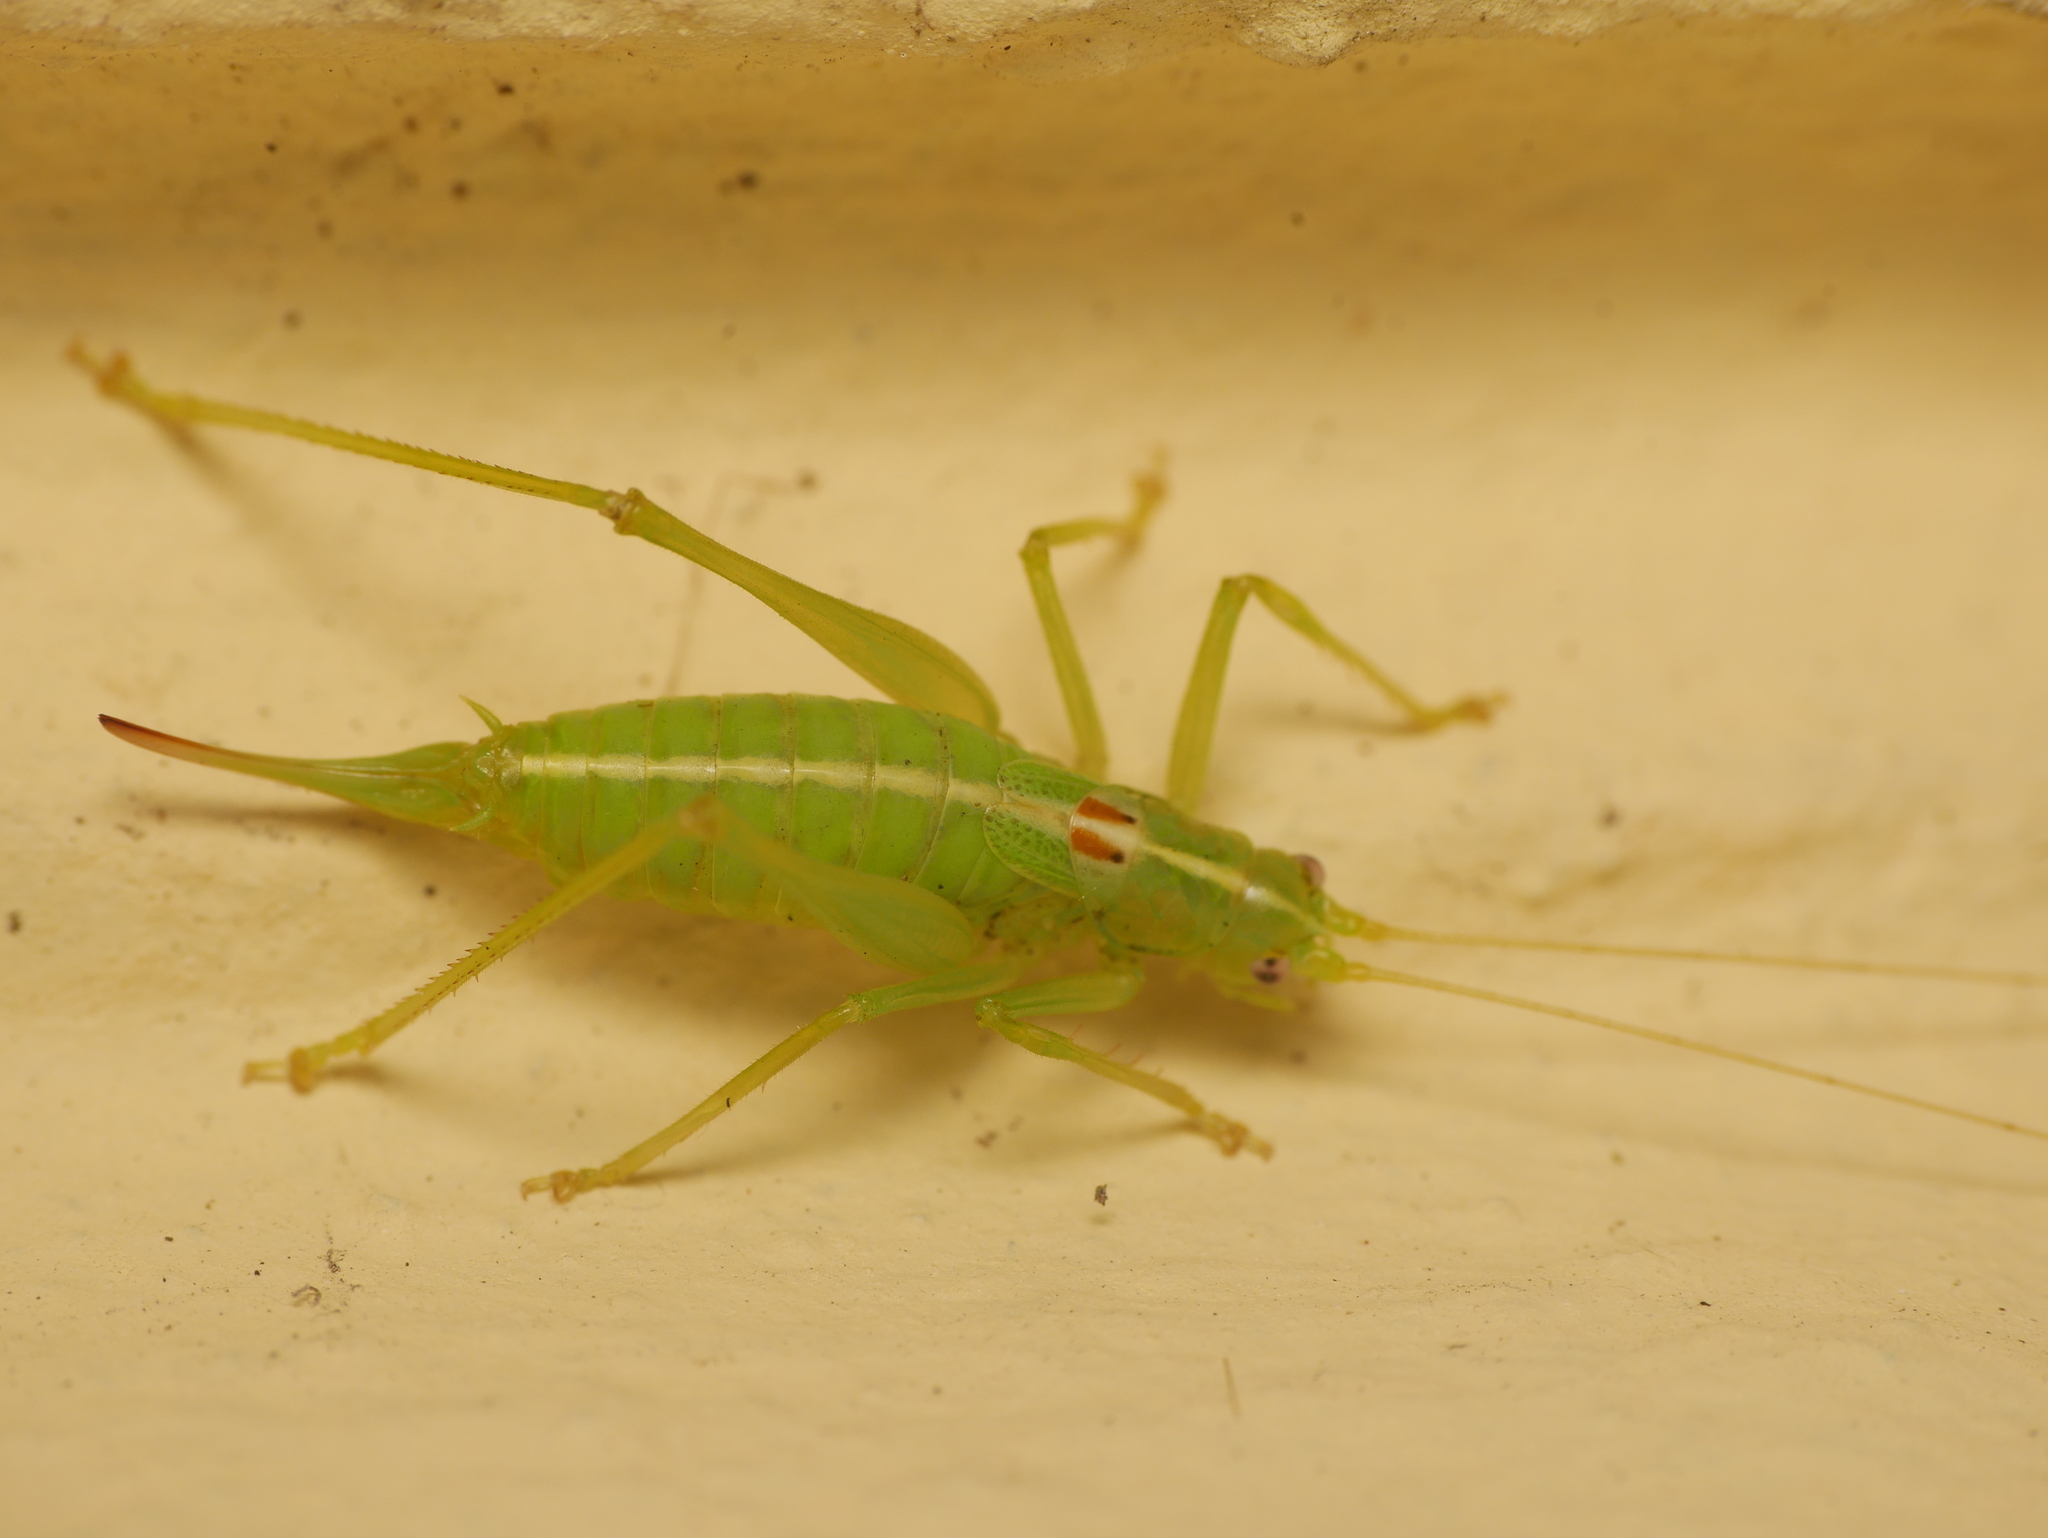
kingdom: Animalia
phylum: Arthropoda
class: Insecta
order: Orthoptera
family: Tettigoniidae
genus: Meconema
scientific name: Meconema meridionale
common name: Southern oak bush-cricket
